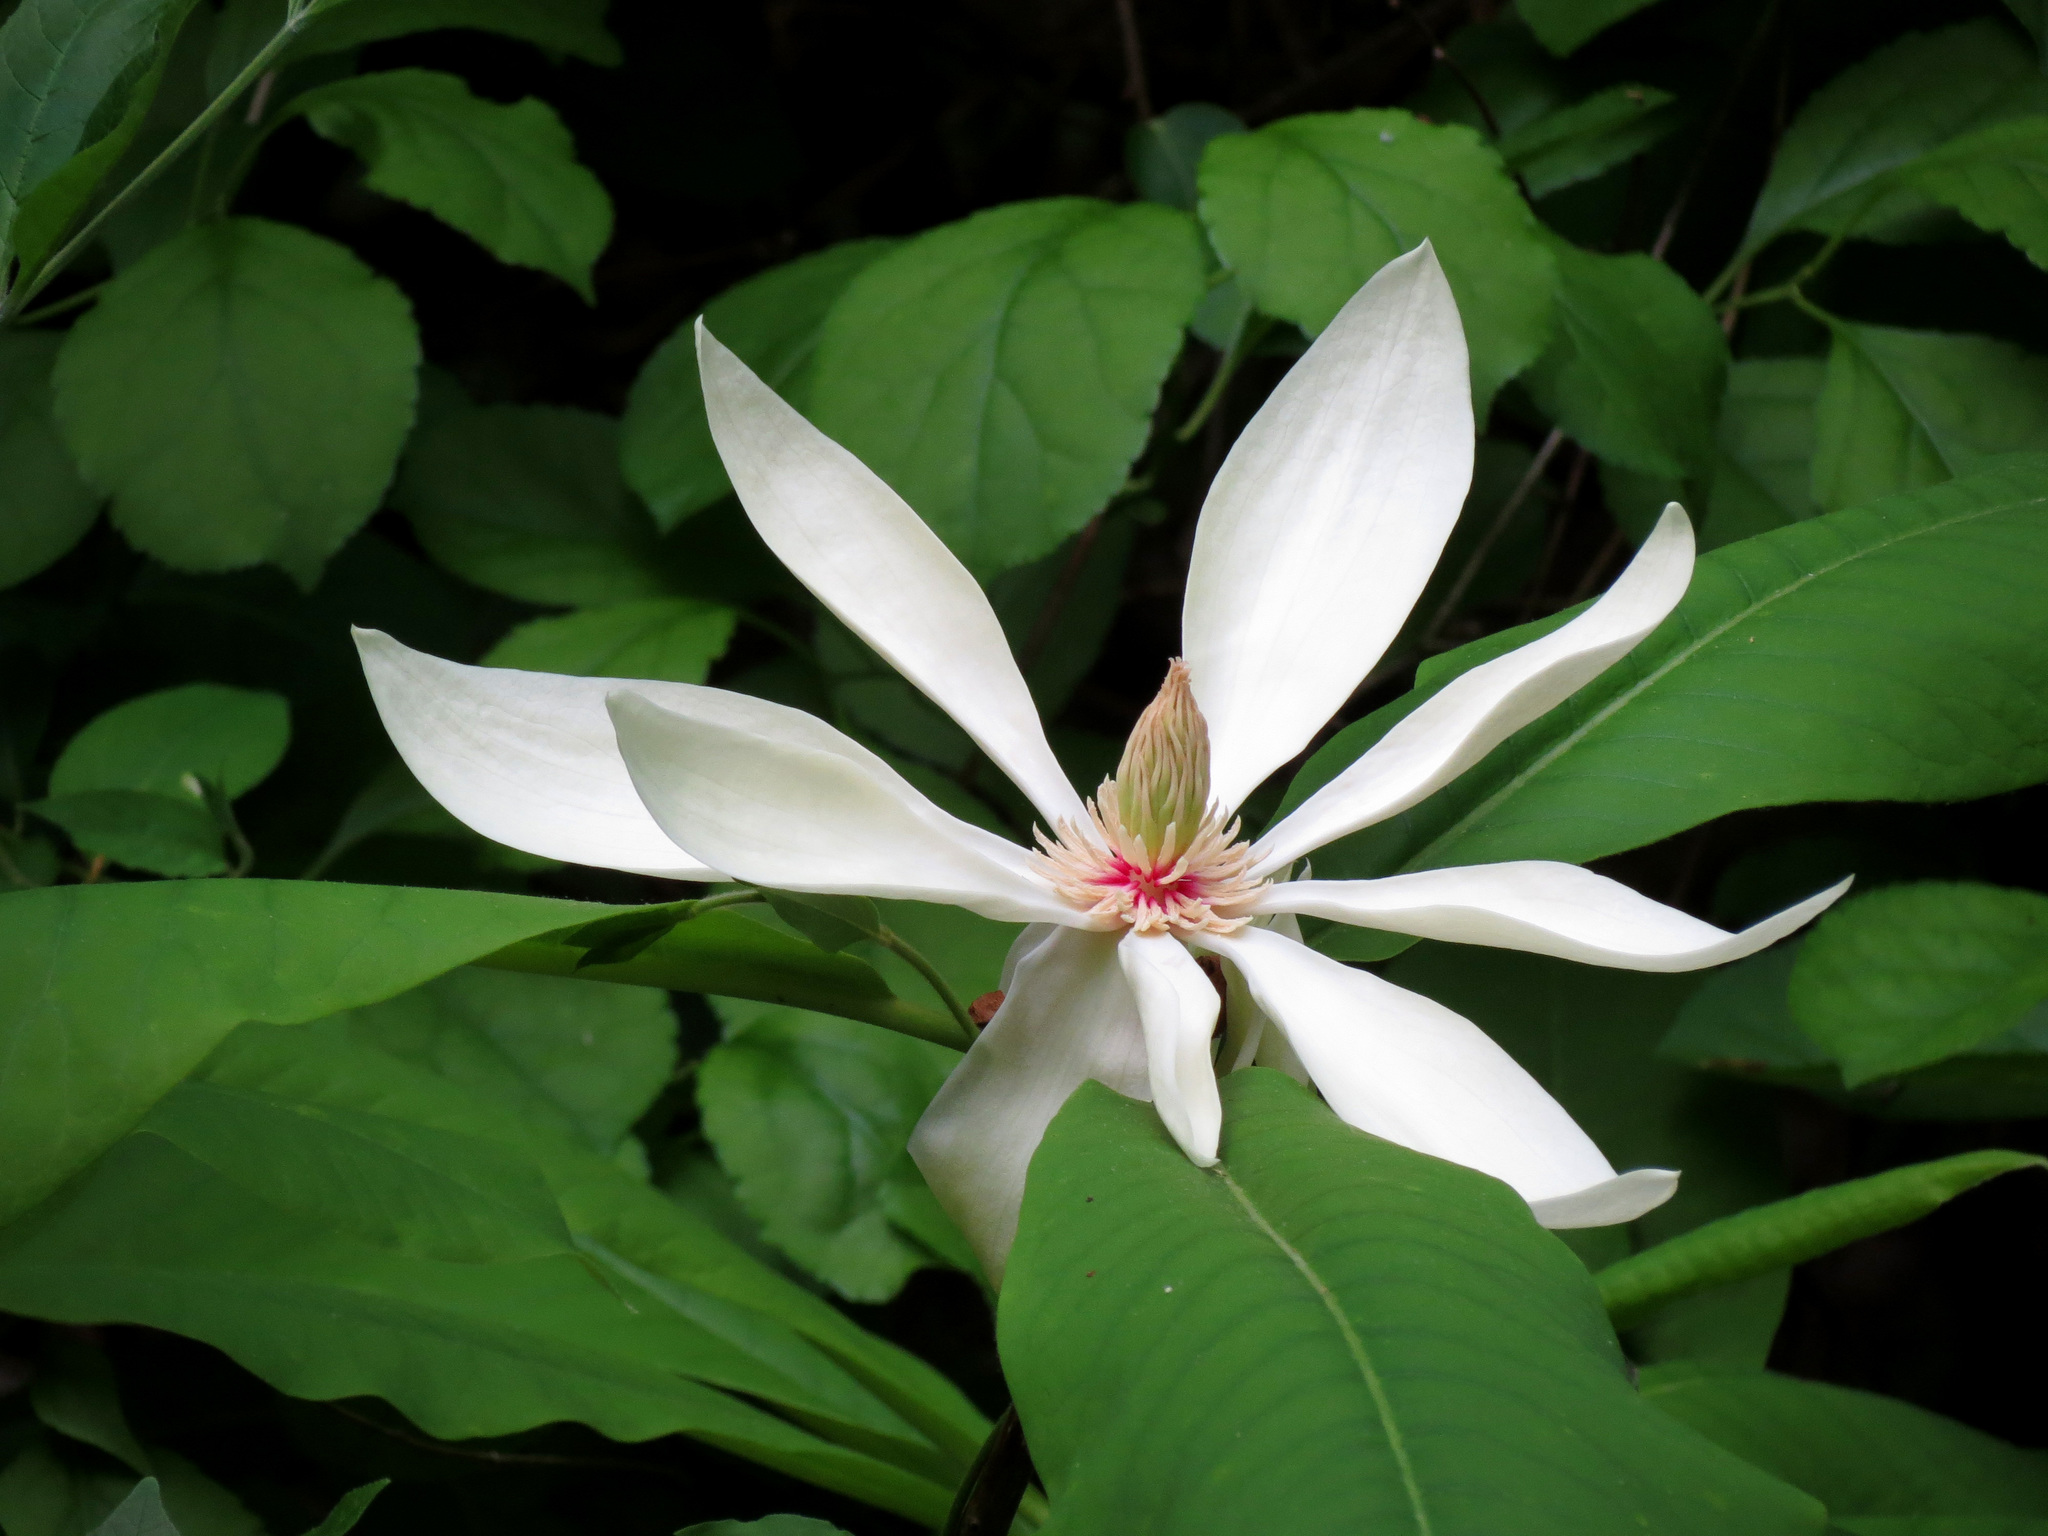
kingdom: Plantae
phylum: Tracheophyta
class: Magnoliopsida
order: Magnoliales
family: Magnoliaceae
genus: Magnolia
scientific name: Magnolia tripetala
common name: Umbrella magnolia
